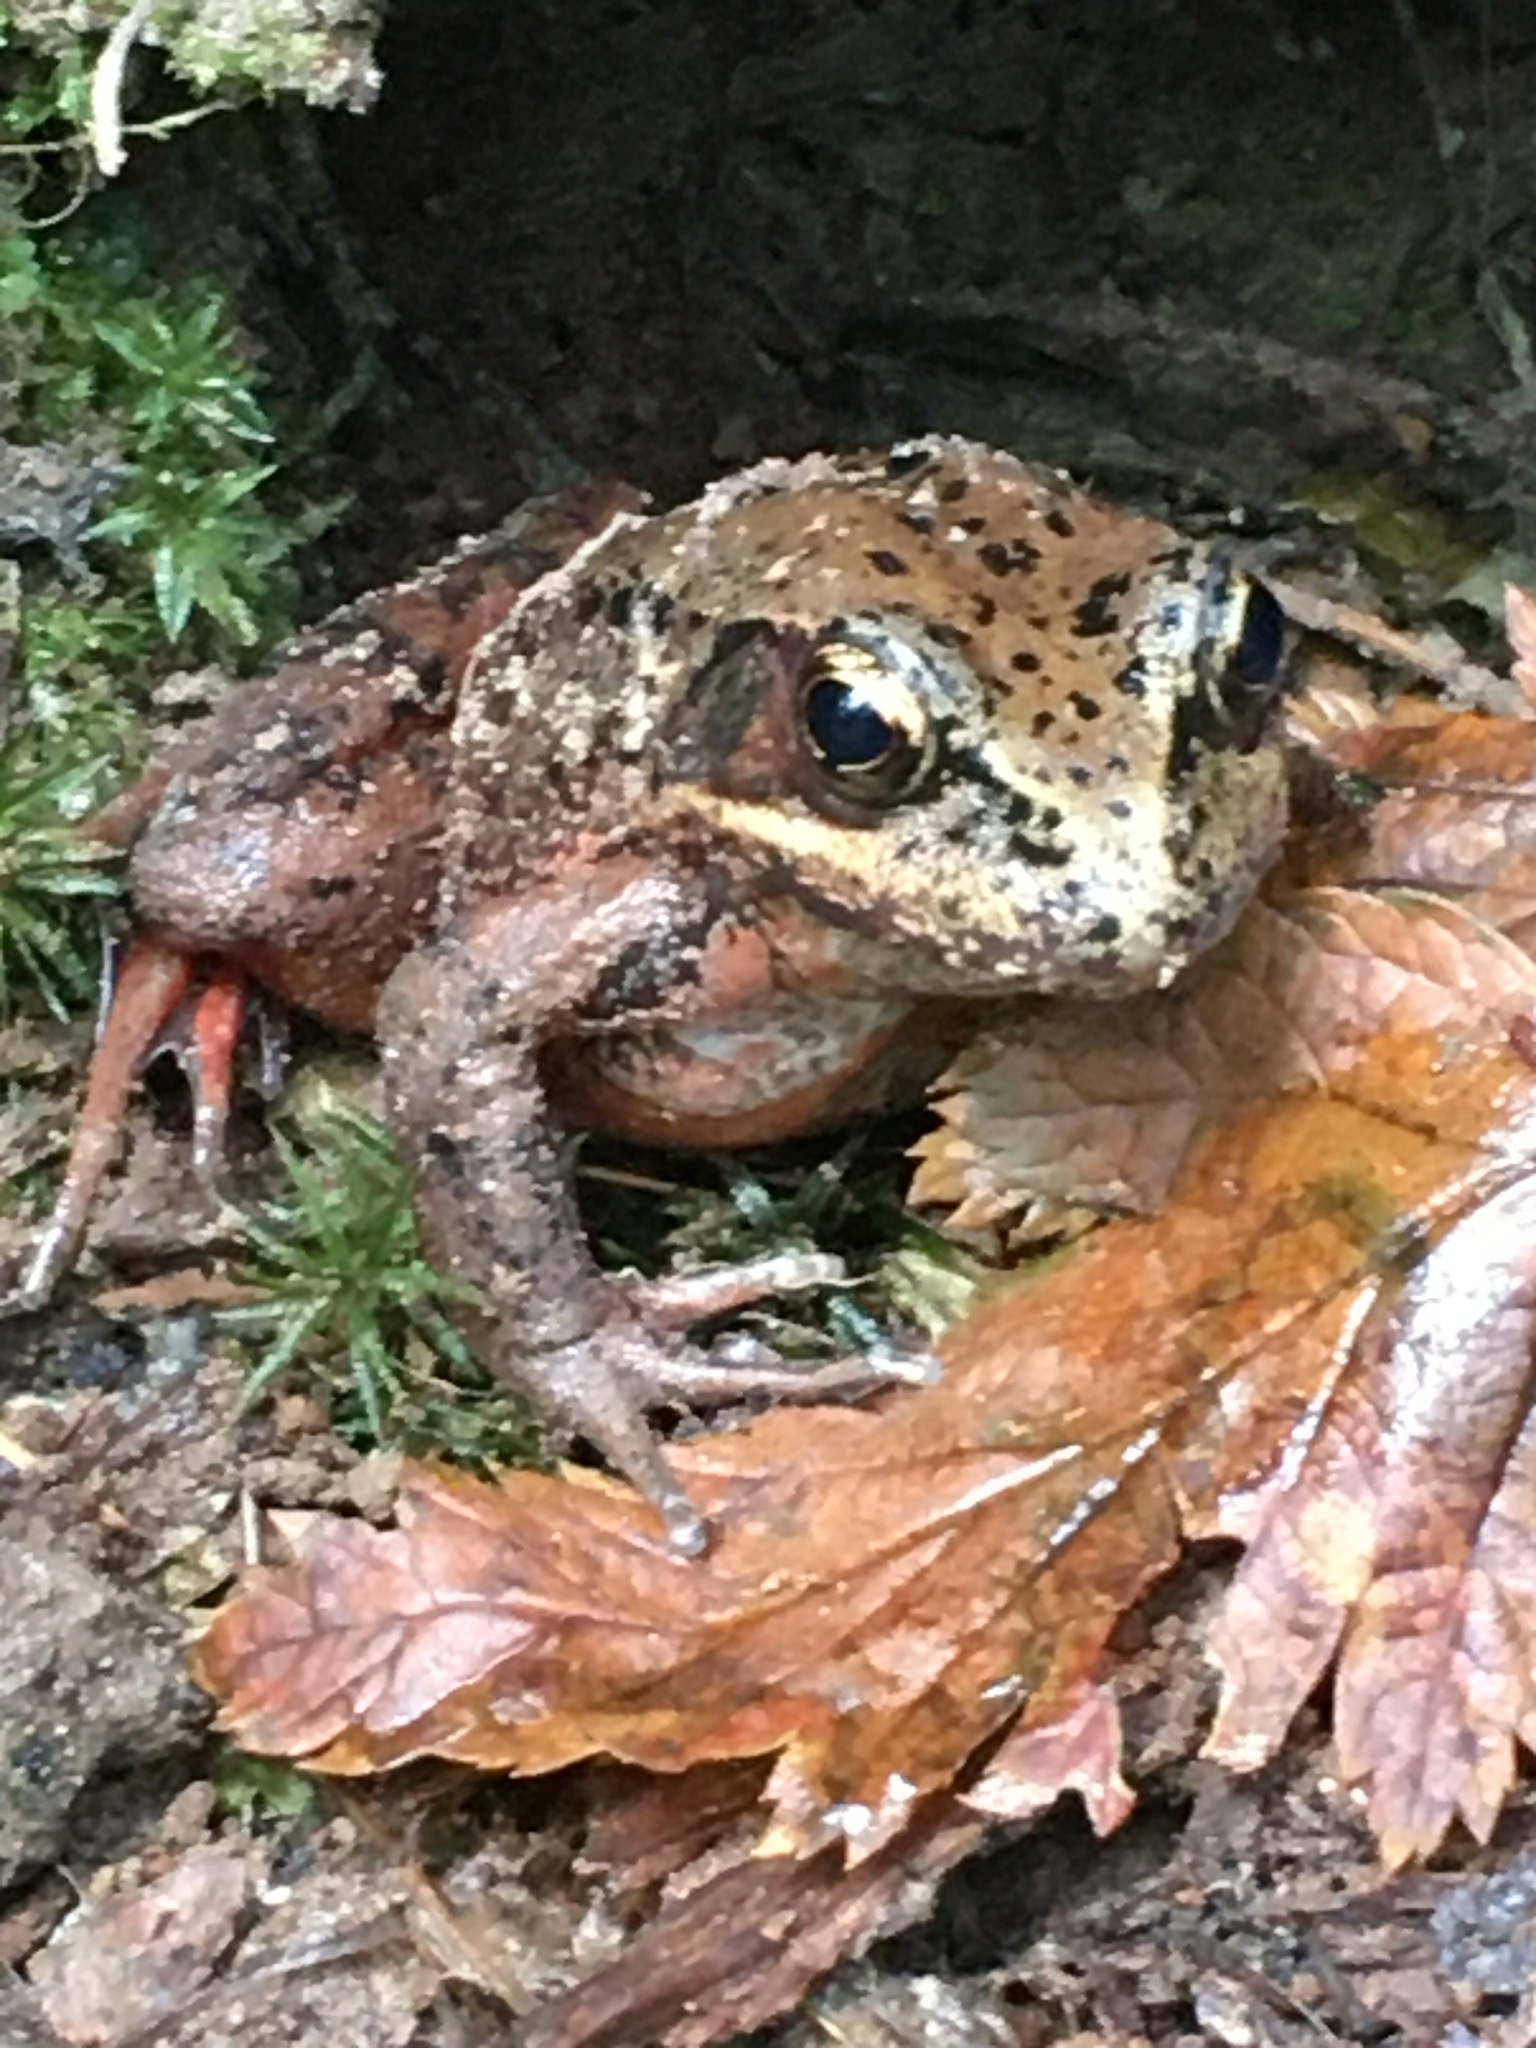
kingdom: Animalia
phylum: Chordata
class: Amphibia
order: Anura
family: Ranidae
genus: Rana
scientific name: Rana aurora
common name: Red-legged frog
